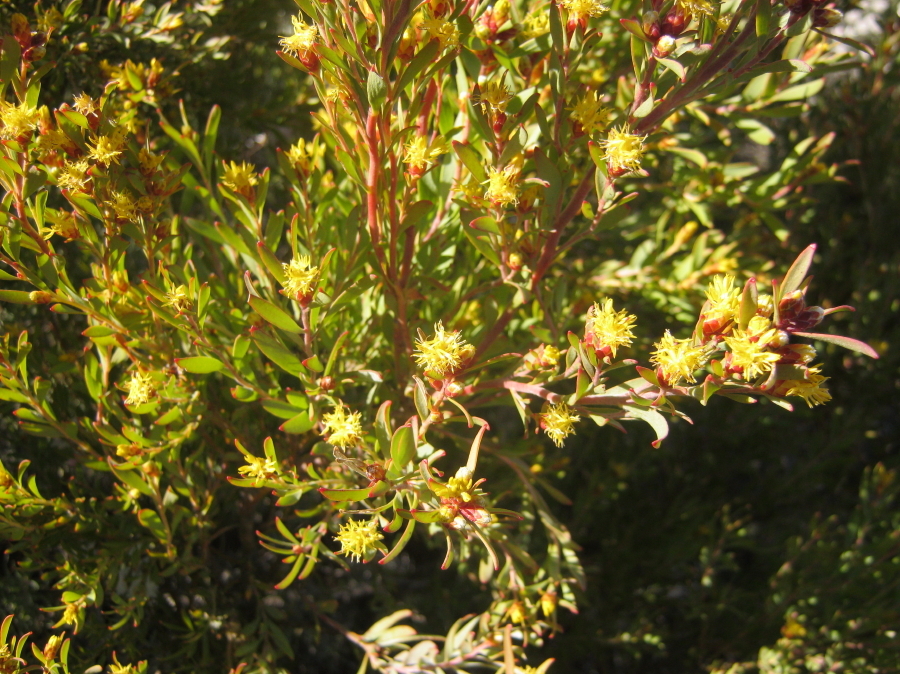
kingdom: Plantae
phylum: Tracheophyta
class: Magnoliopsida
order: Proteales
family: Proteaceae
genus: Leucadendron
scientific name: Leucadendron rubrum
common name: Spinning top
